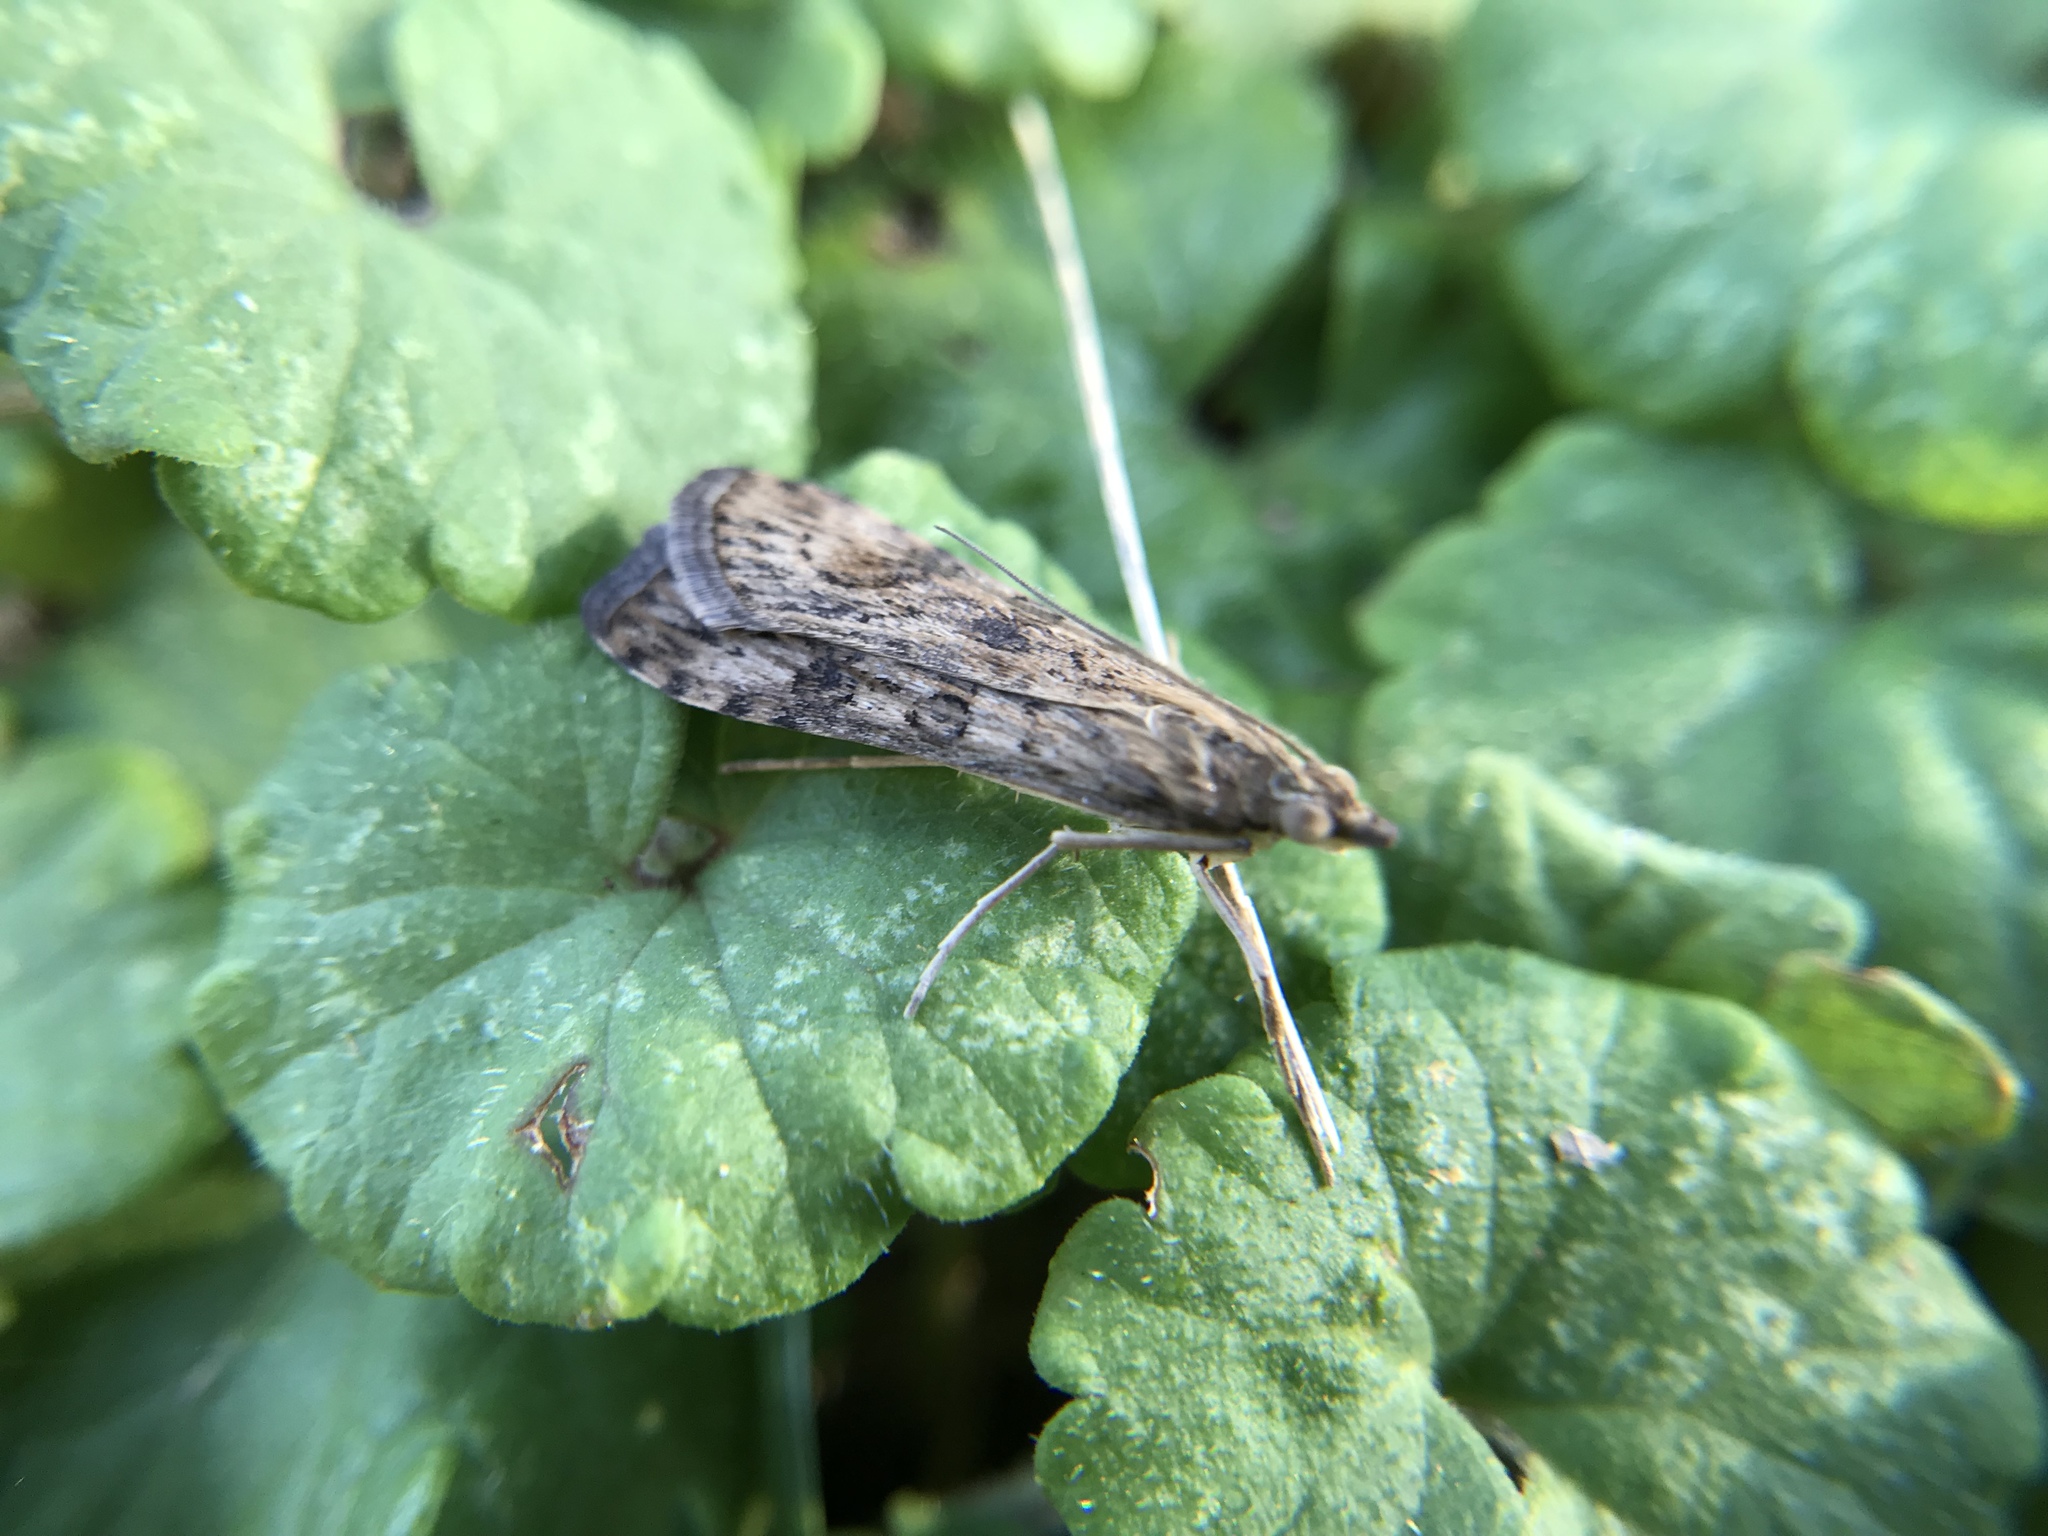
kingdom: Animalia
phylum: Arthropoda
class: Insecta
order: Lepidoptera
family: Crambidae
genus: Nomophila
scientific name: Nomophila nearctica
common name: American rush veneer
